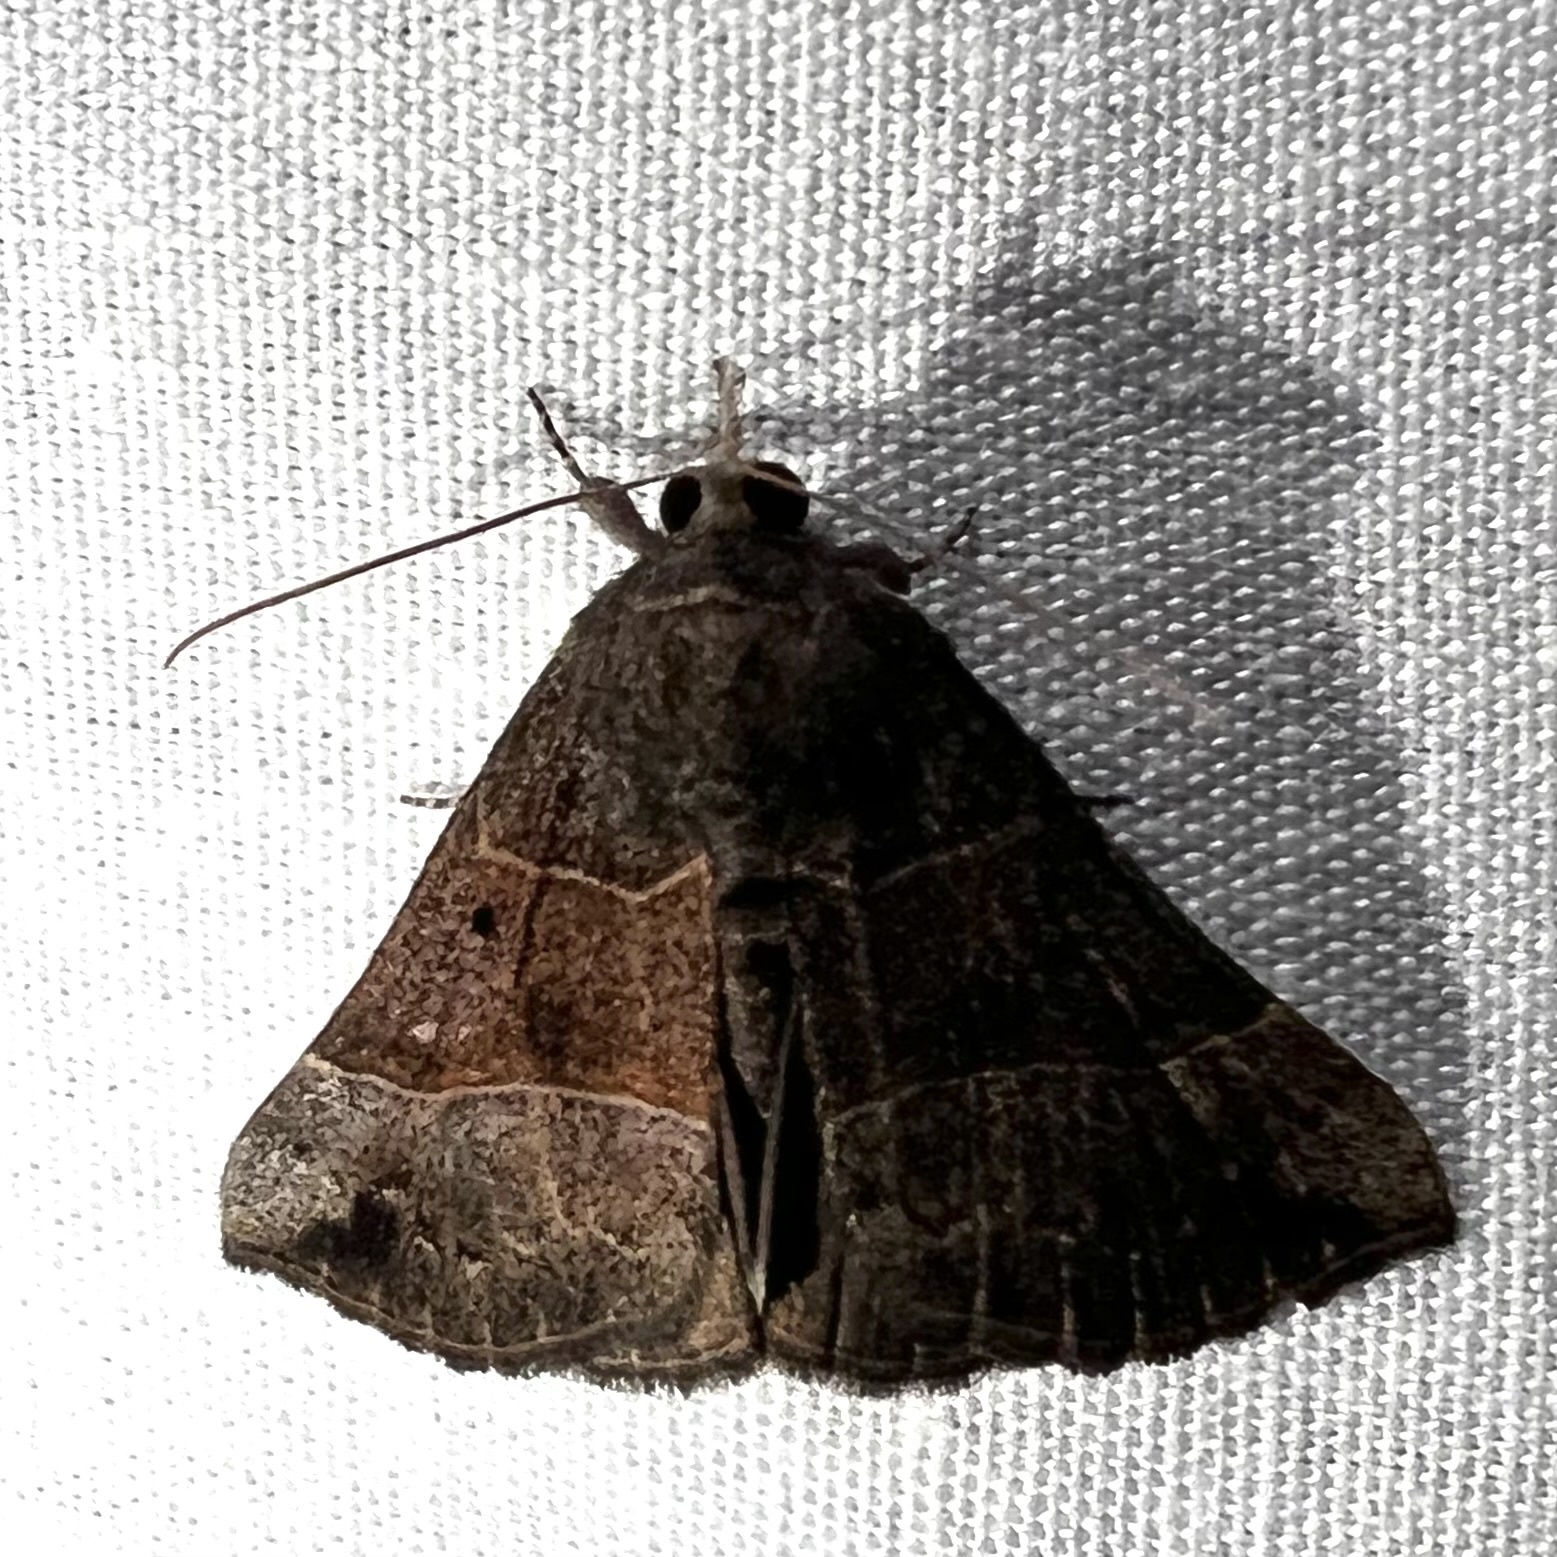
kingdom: Animalia
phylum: Arthropoda
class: Insecta
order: Lepidoptera
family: Erebidae
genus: Hypena
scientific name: Hypena deceptalis
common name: Deceptive snout
